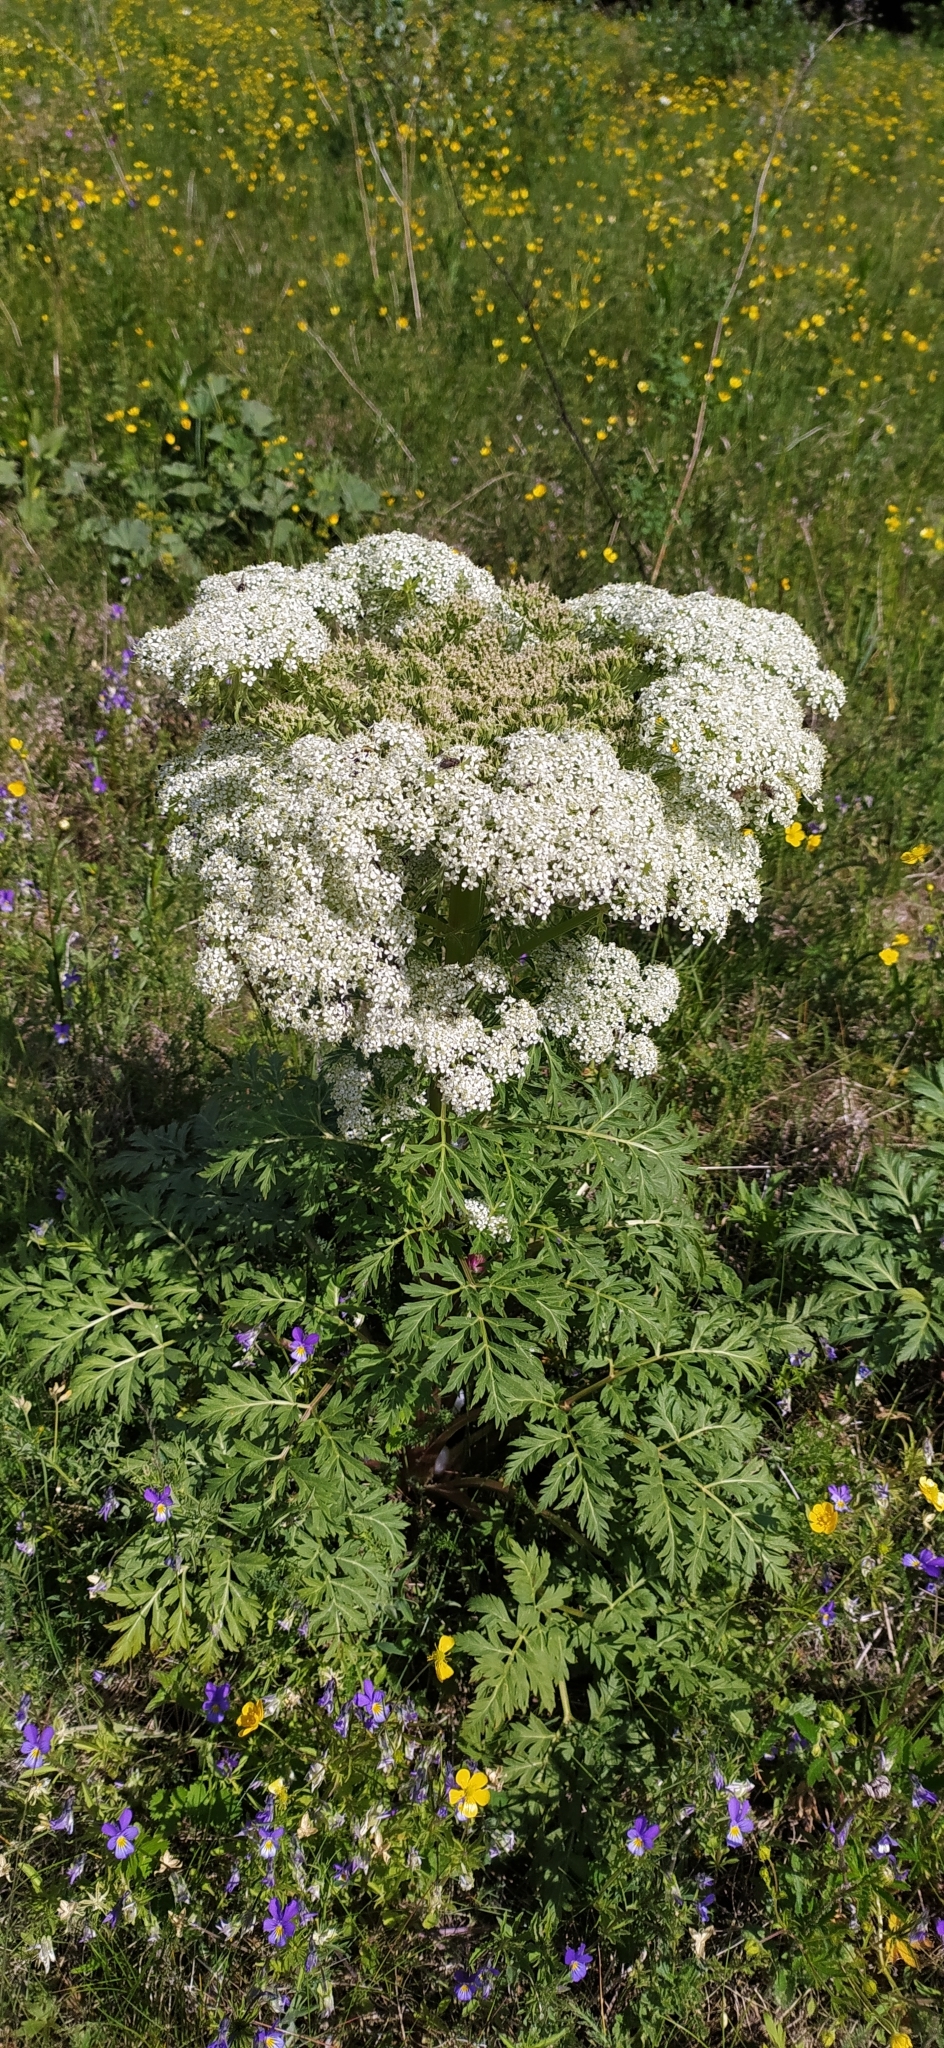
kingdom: Plantae
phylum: Tracheophyta
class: Magnoliopsida
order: Apiales
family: Apiaceae
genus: Pleurospermum
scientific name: Pleurospermum uralense
